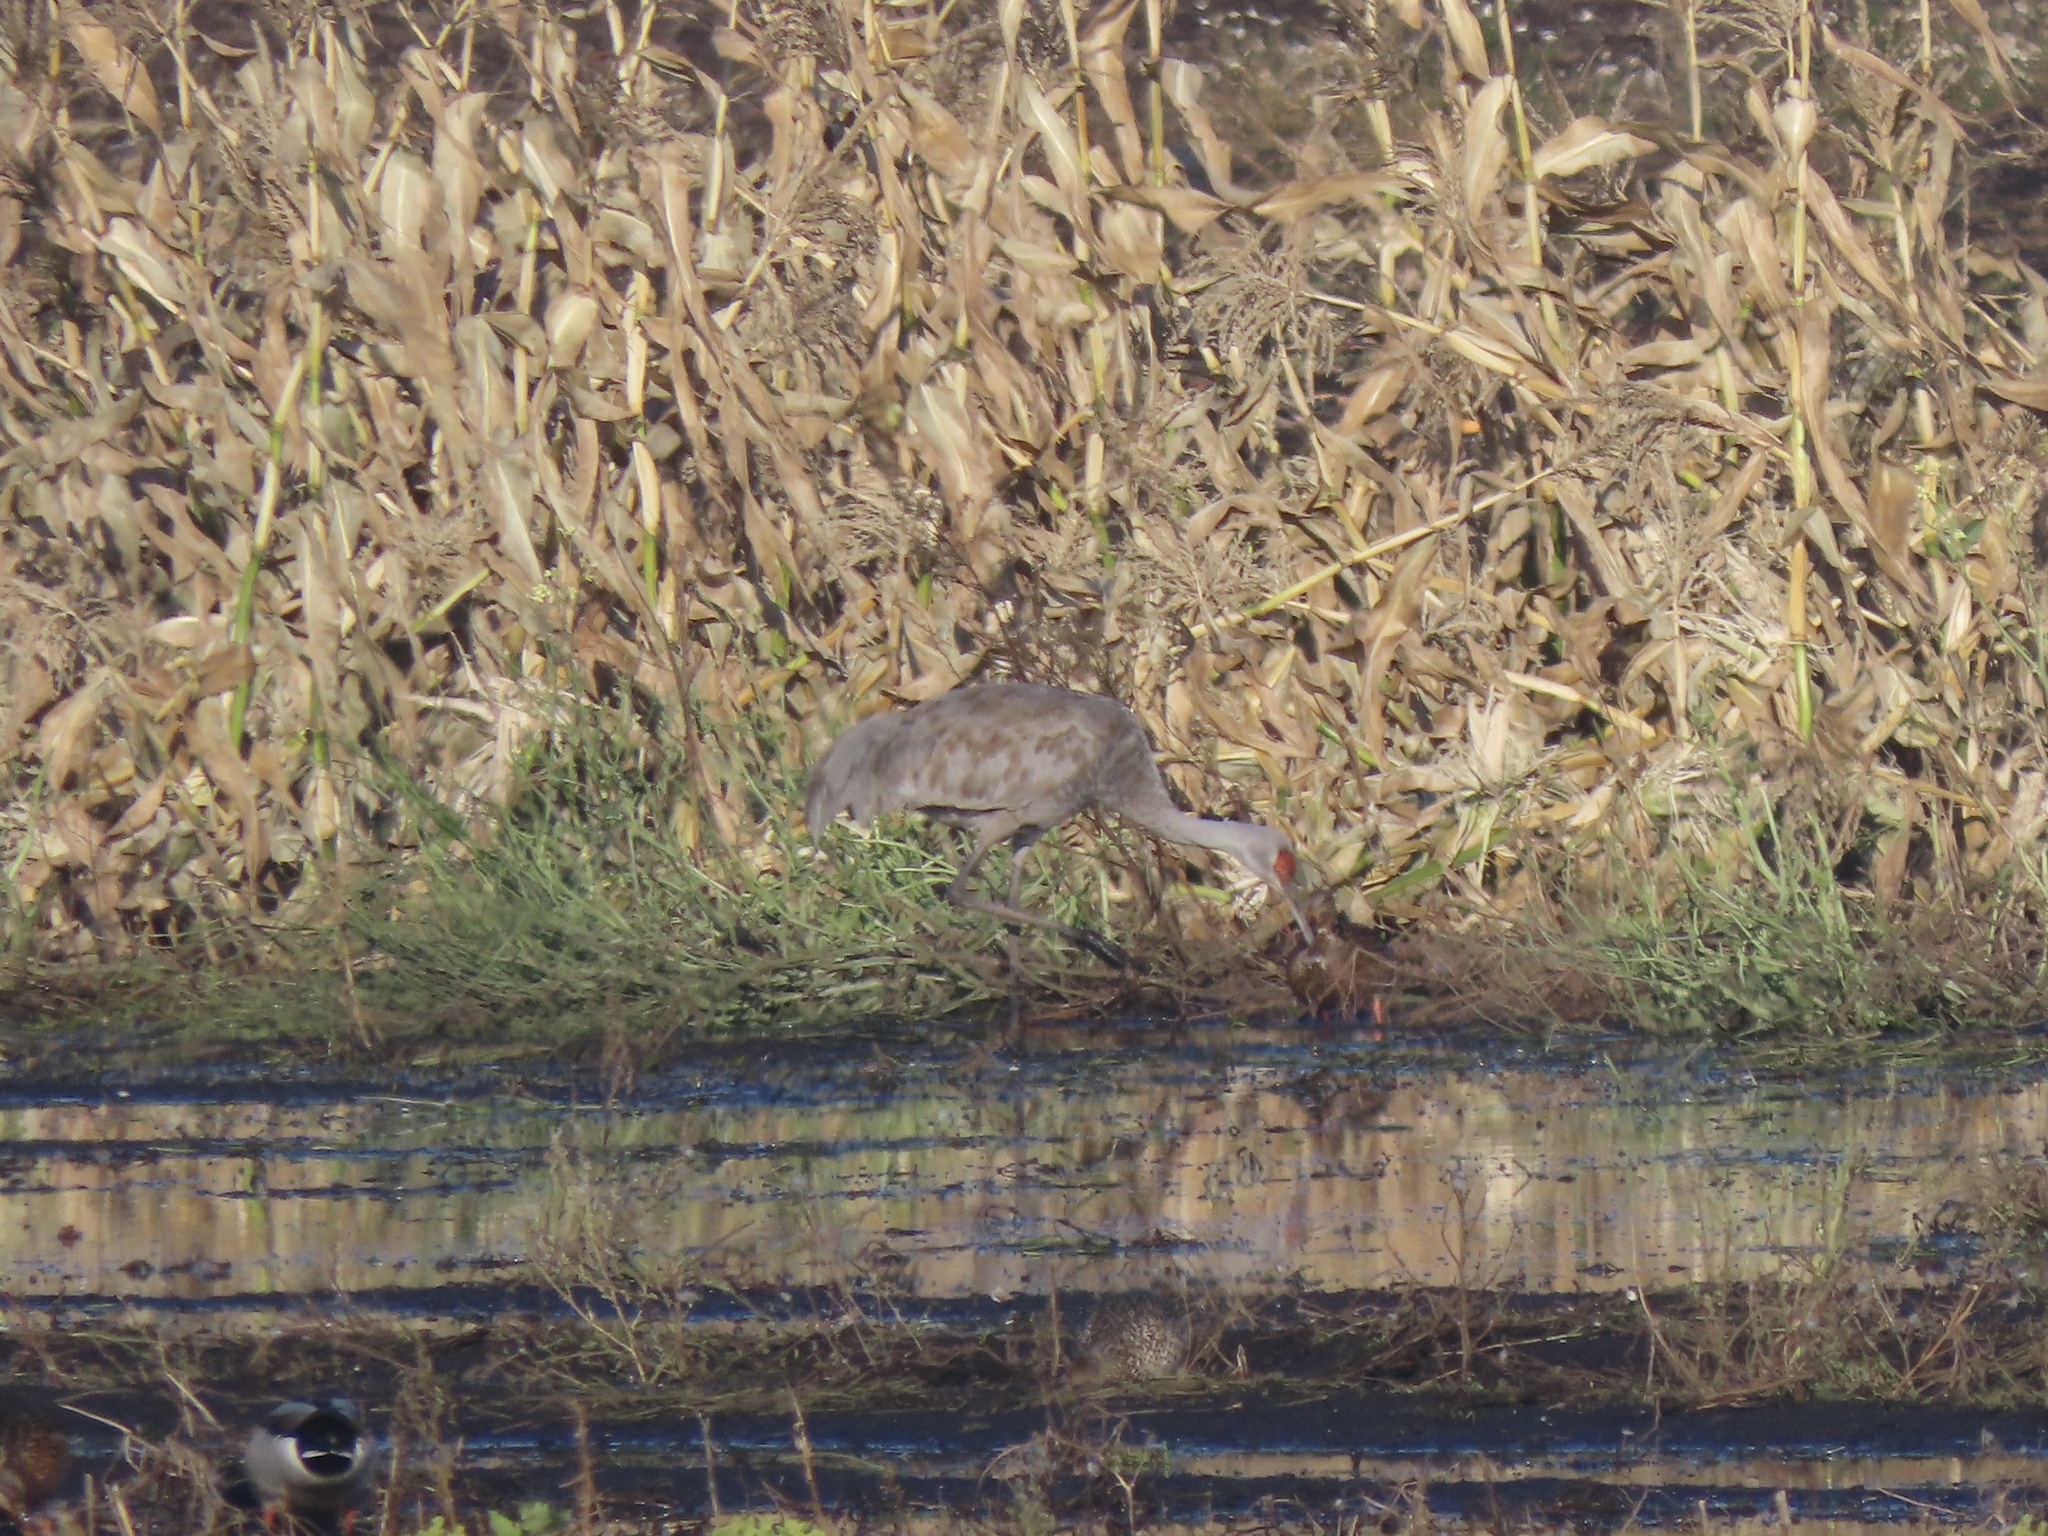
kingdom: Animalia
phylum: Chordata
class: Aves
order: Gruiformes
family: Gruidae
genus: Grus
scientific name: Grus canadensis
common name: Sandhill crane
